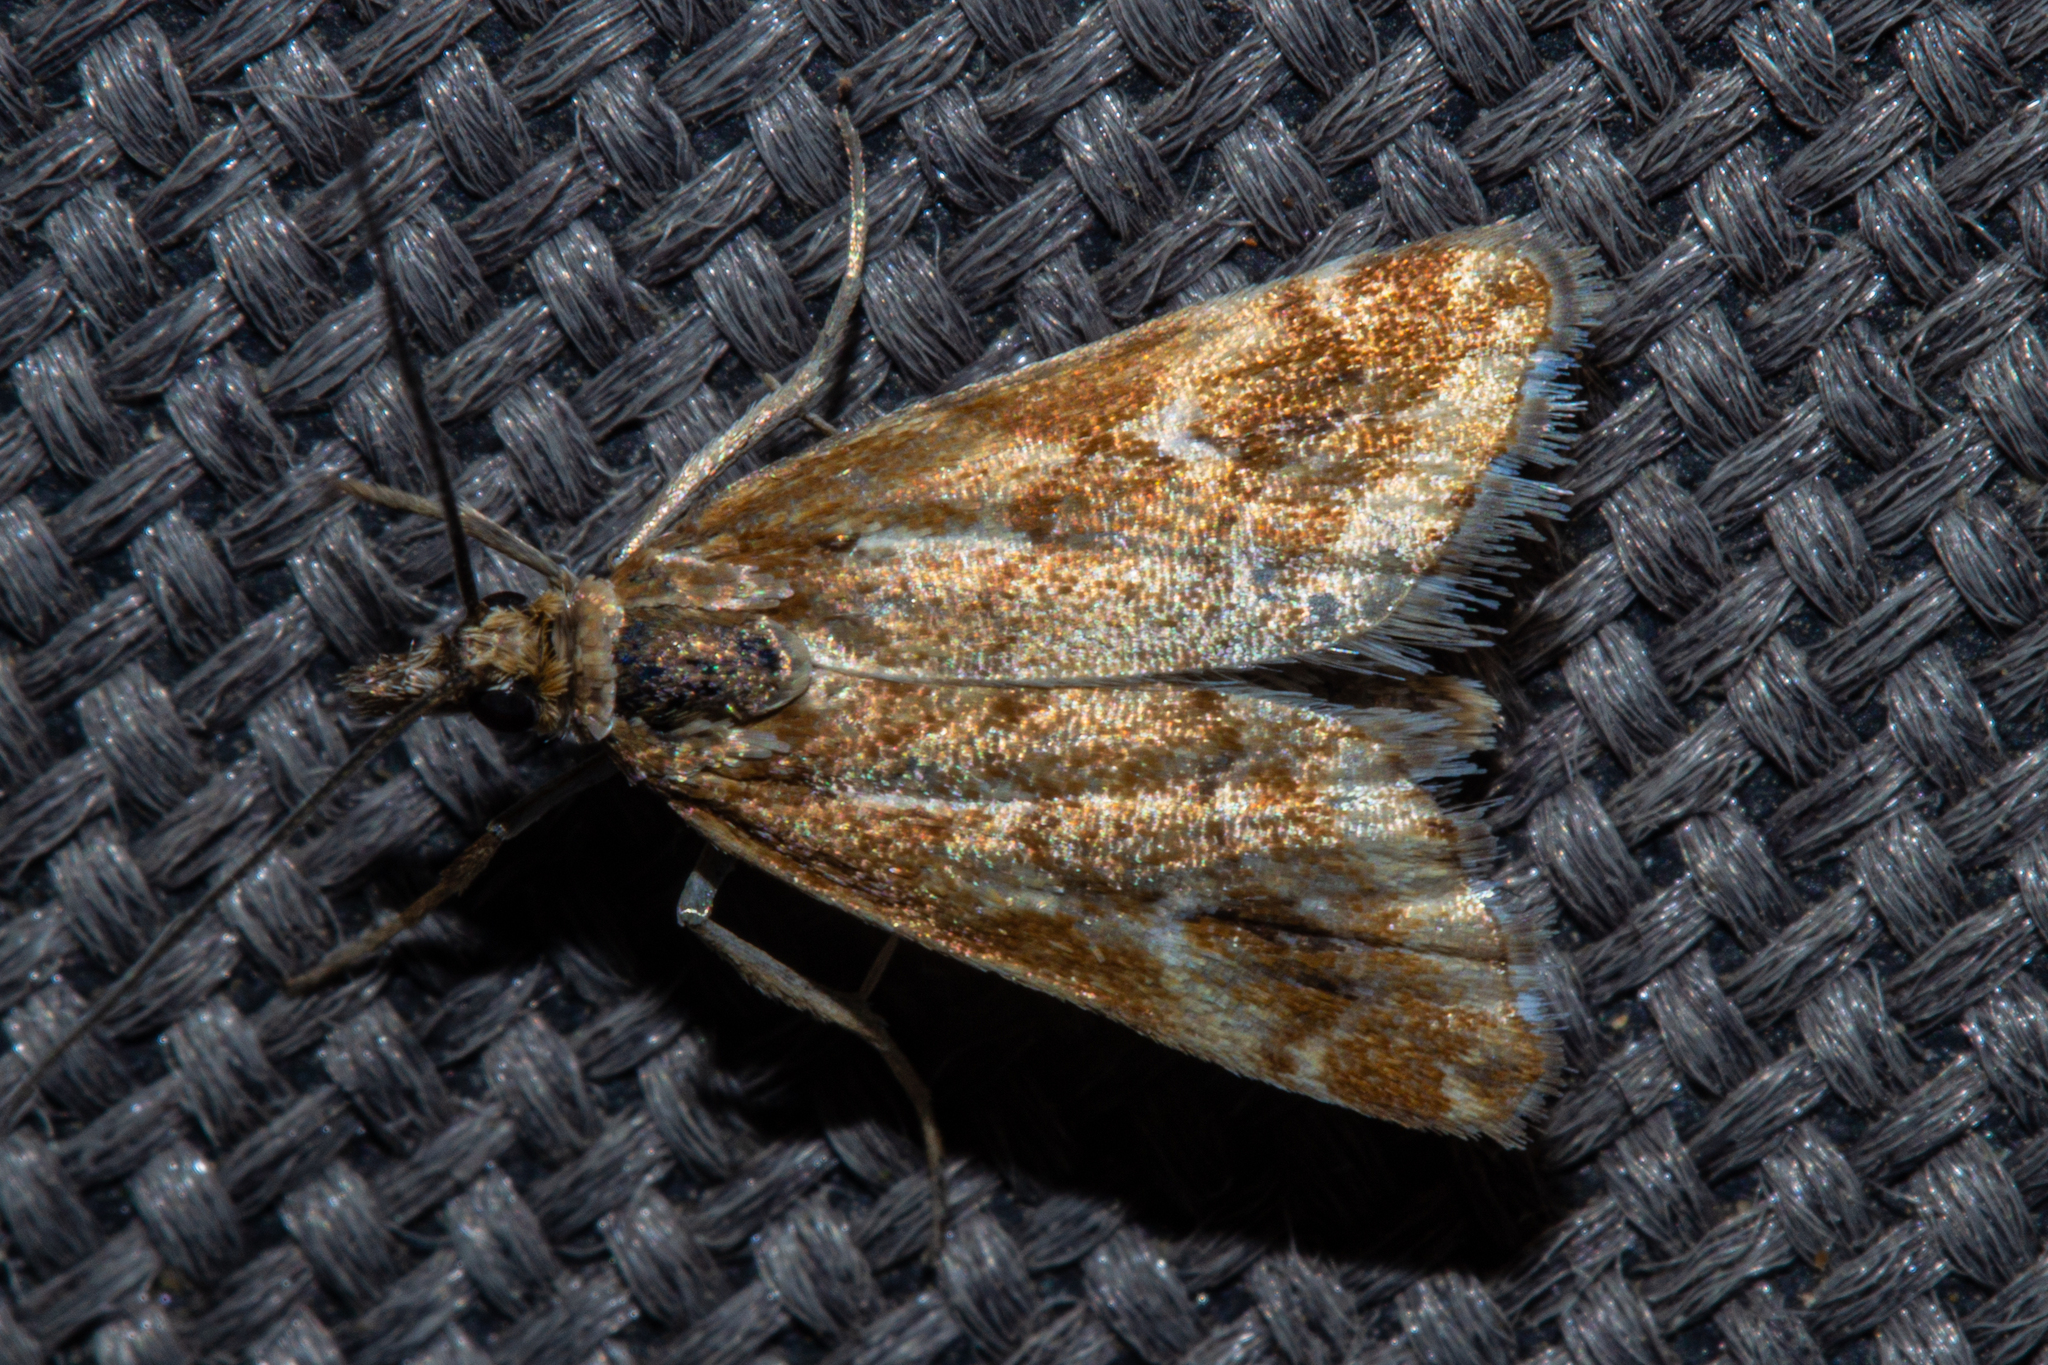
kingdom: Animalia
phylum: Arthropoda
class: Insecta
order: Lepidoptera
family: Crambidae
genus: Glaucocharis
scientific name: Glaucocharis helioctypa
